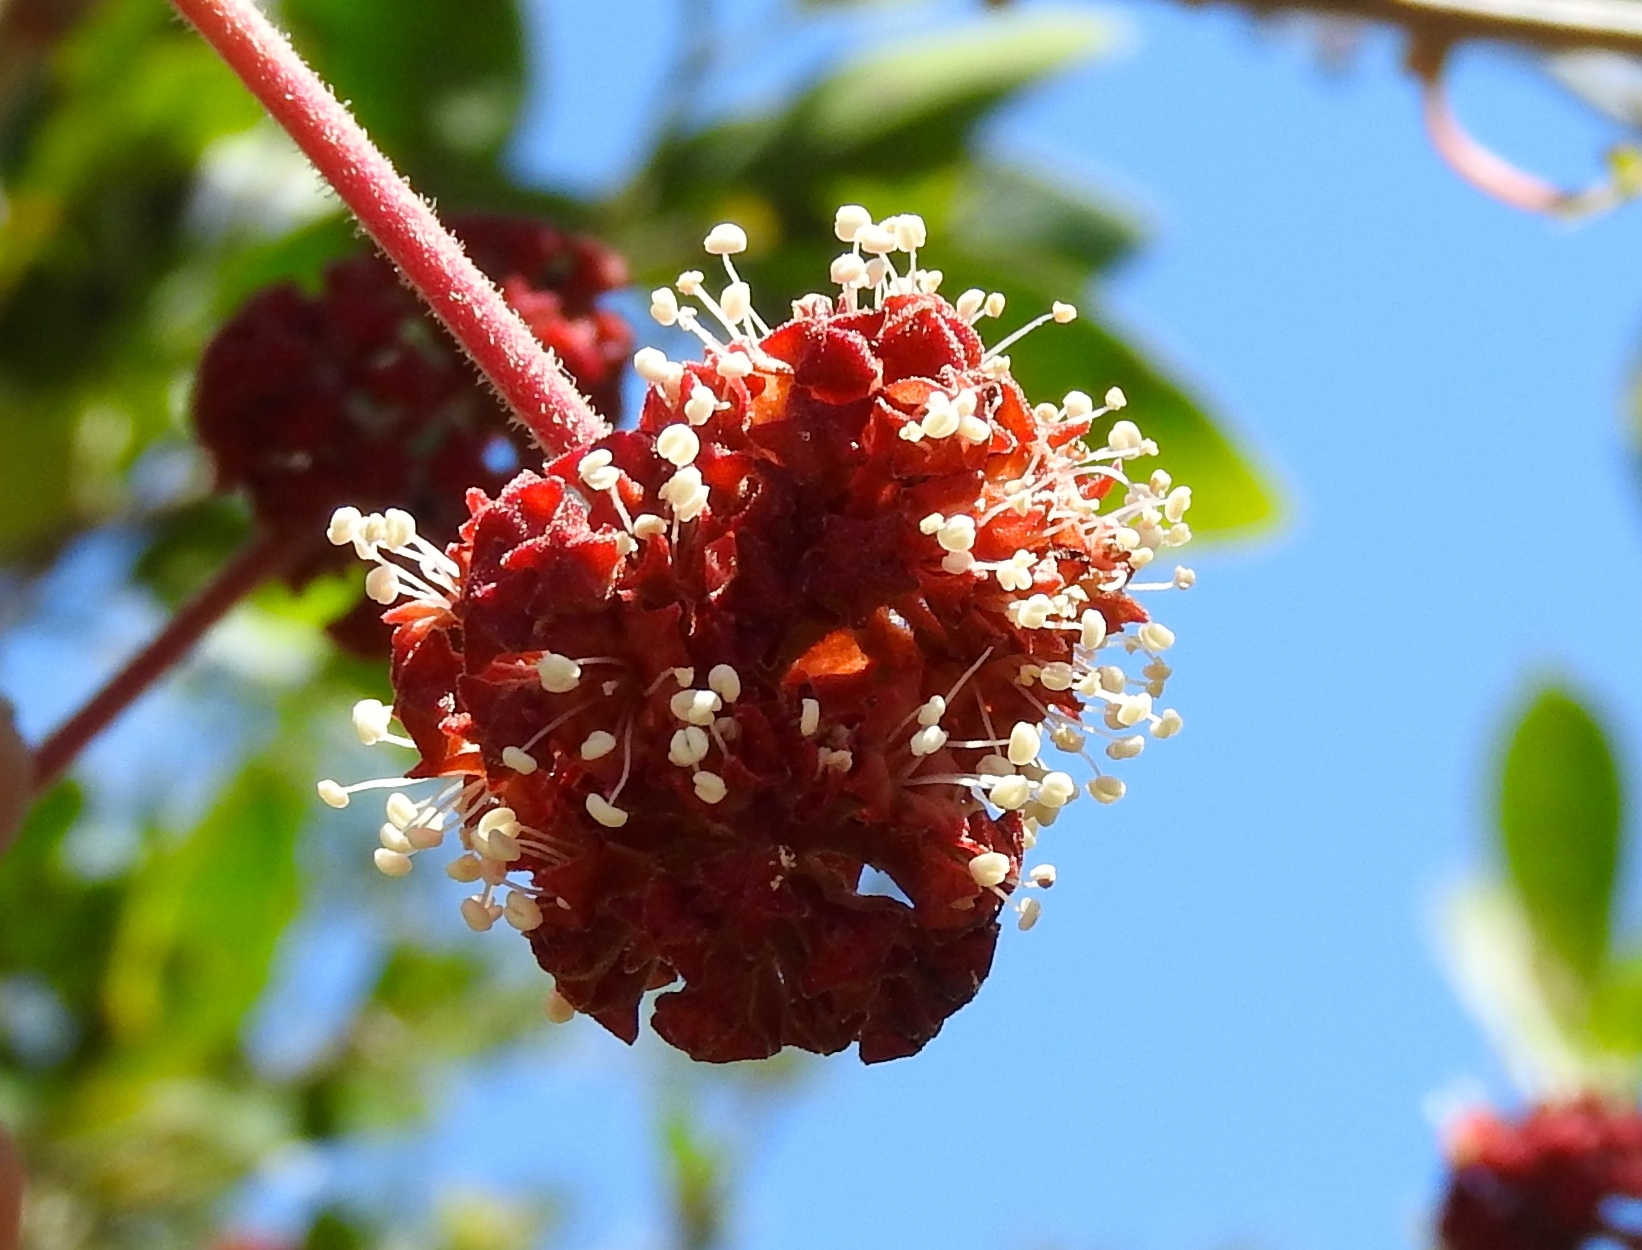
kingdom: Plantae
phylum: Tracheophyta
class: Magnoliopsida
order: Caryophyllales
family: Nyctaginaceae
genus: Pisonia
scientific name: Pisonia capitata
